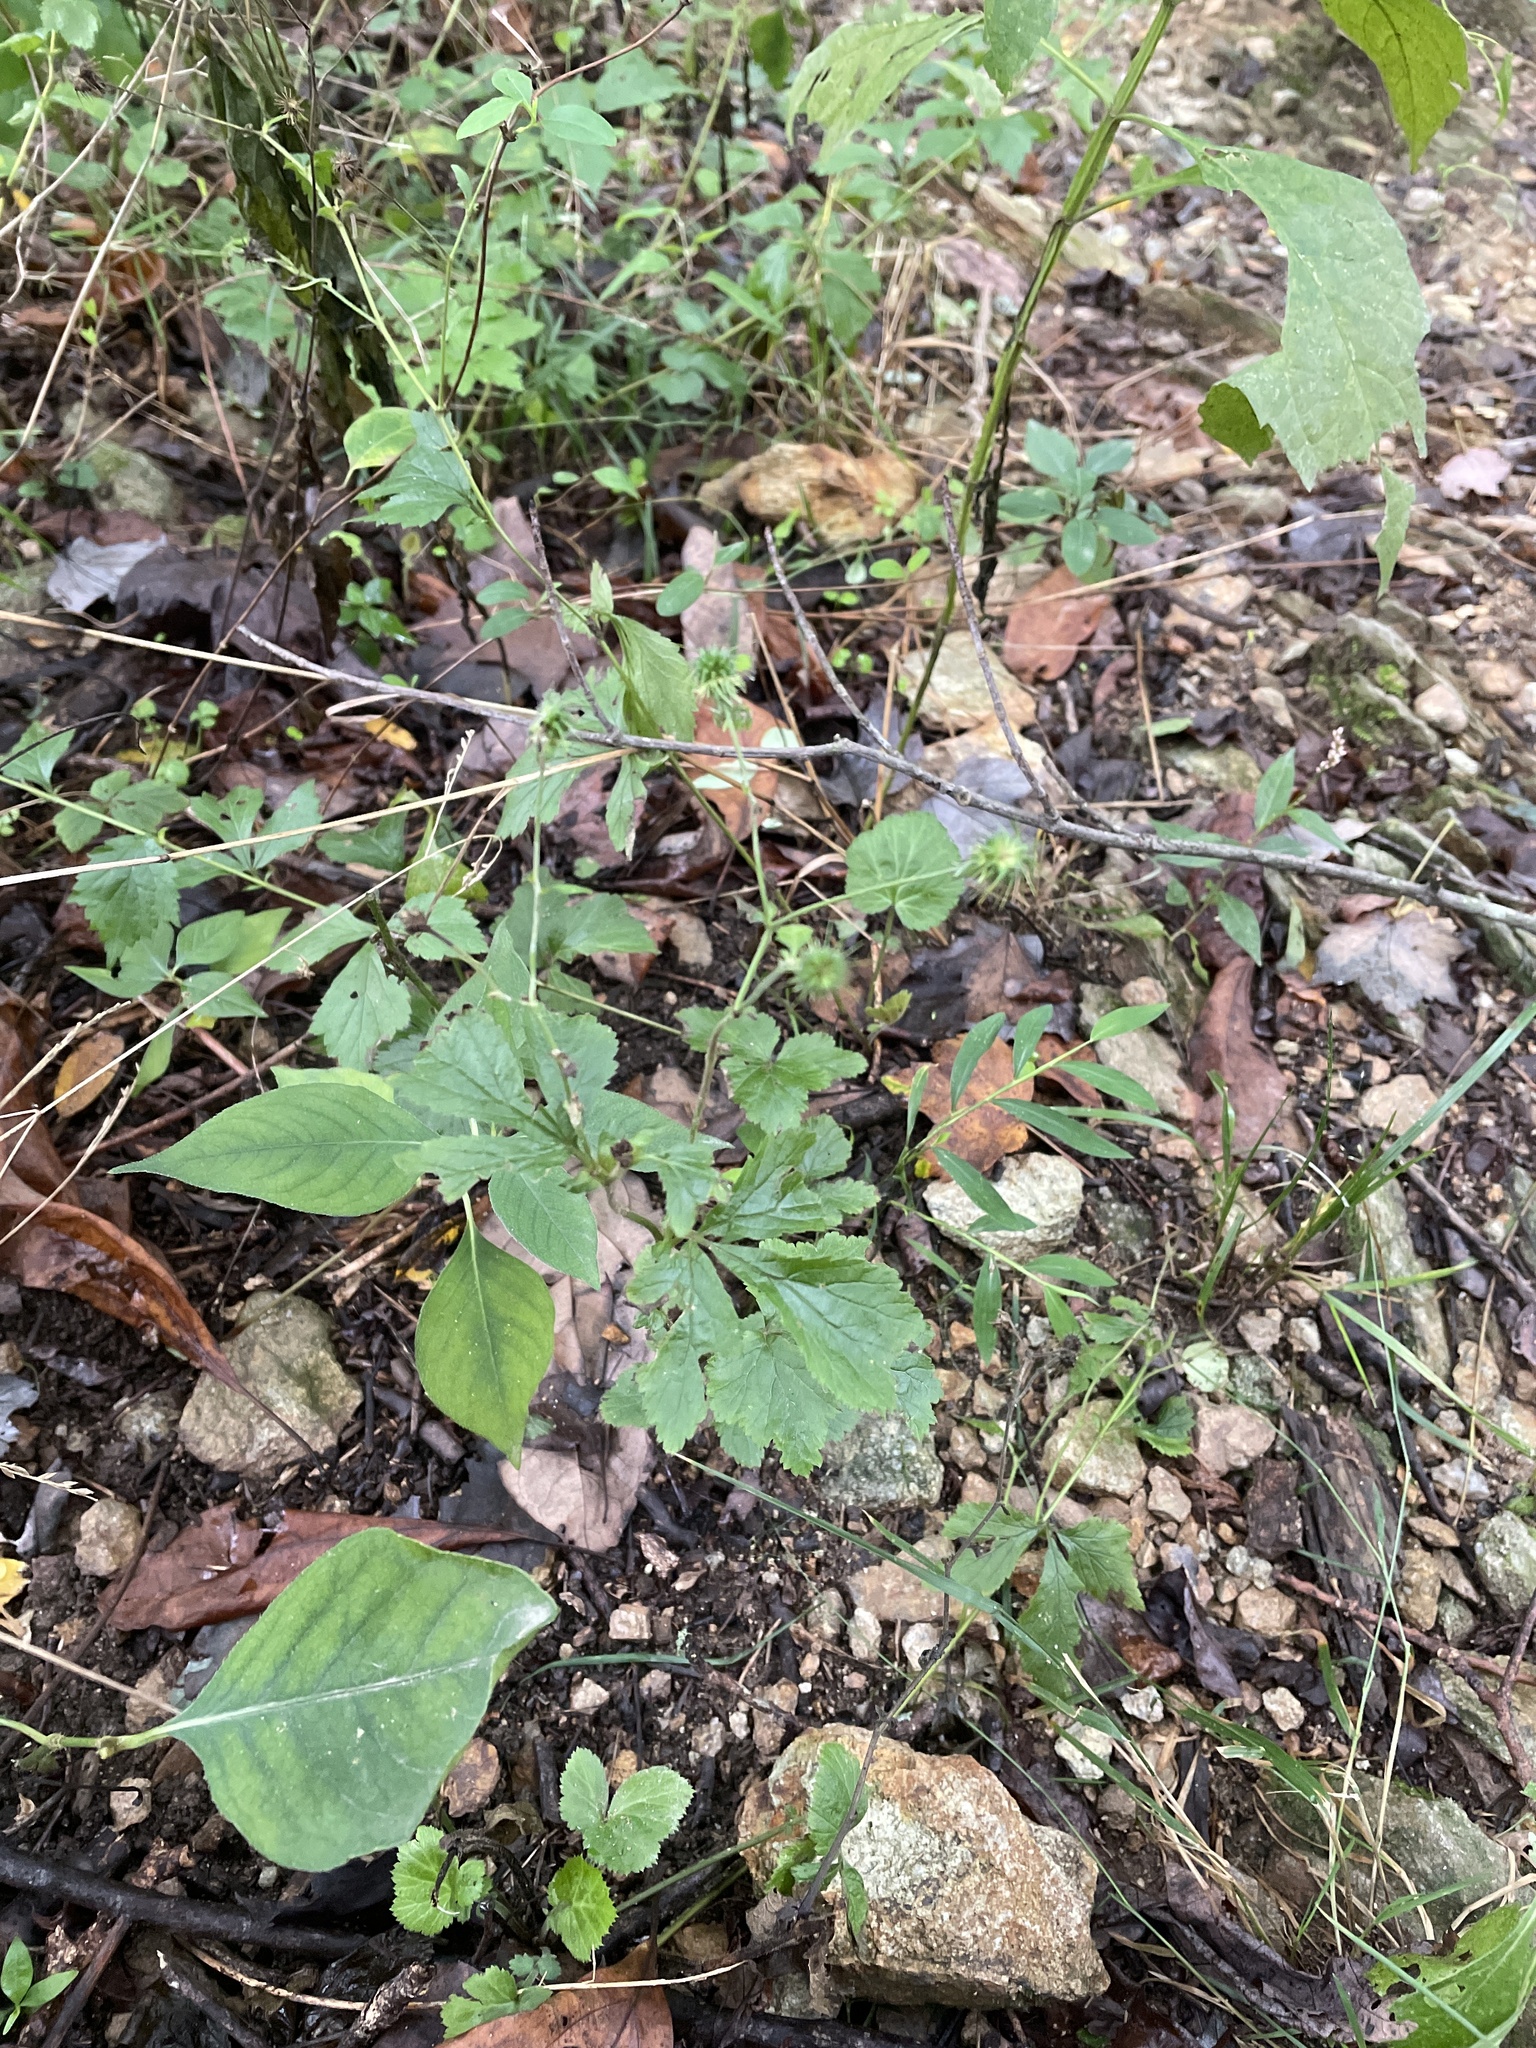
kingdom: Plantae
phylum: Tracheophyta
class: Magnoliopsida
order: Rosales
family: Rosaceae
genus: Geum
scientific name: Geum canadense
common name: White avens
